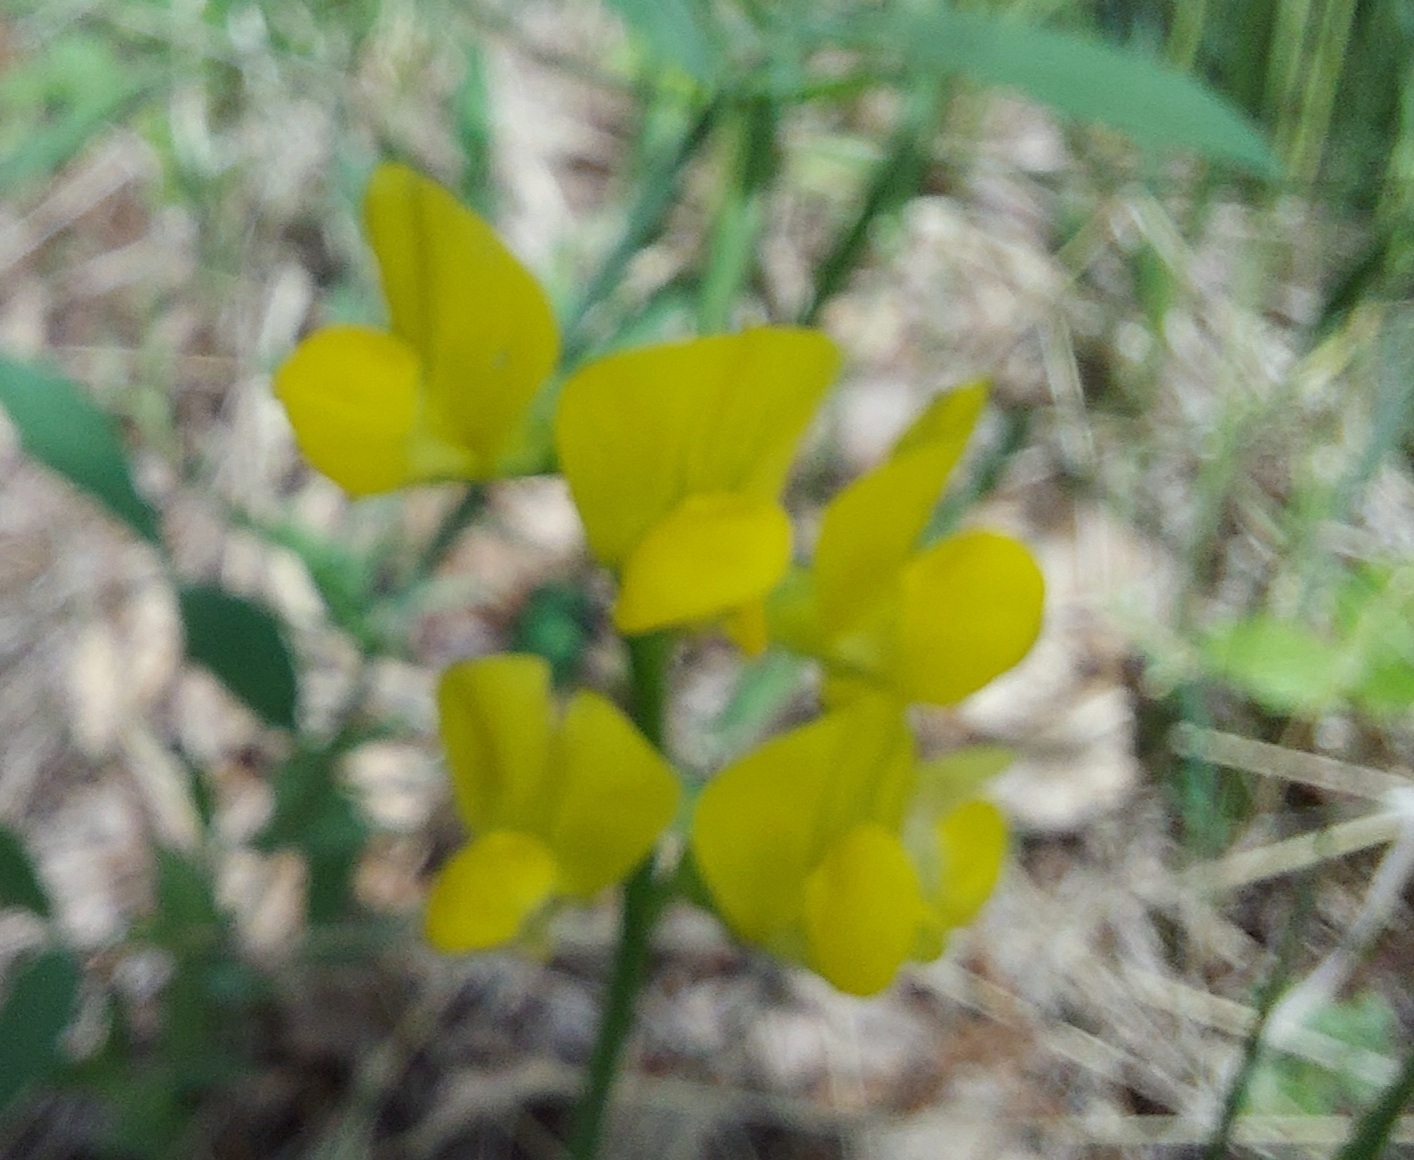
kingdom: Plantae
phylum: Tracheophyta
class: Magnoliopsida
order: Fabales
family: Fabaceae
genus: Lathyrus
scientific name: Lathyrus pratensis
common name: Meadow vetchling
